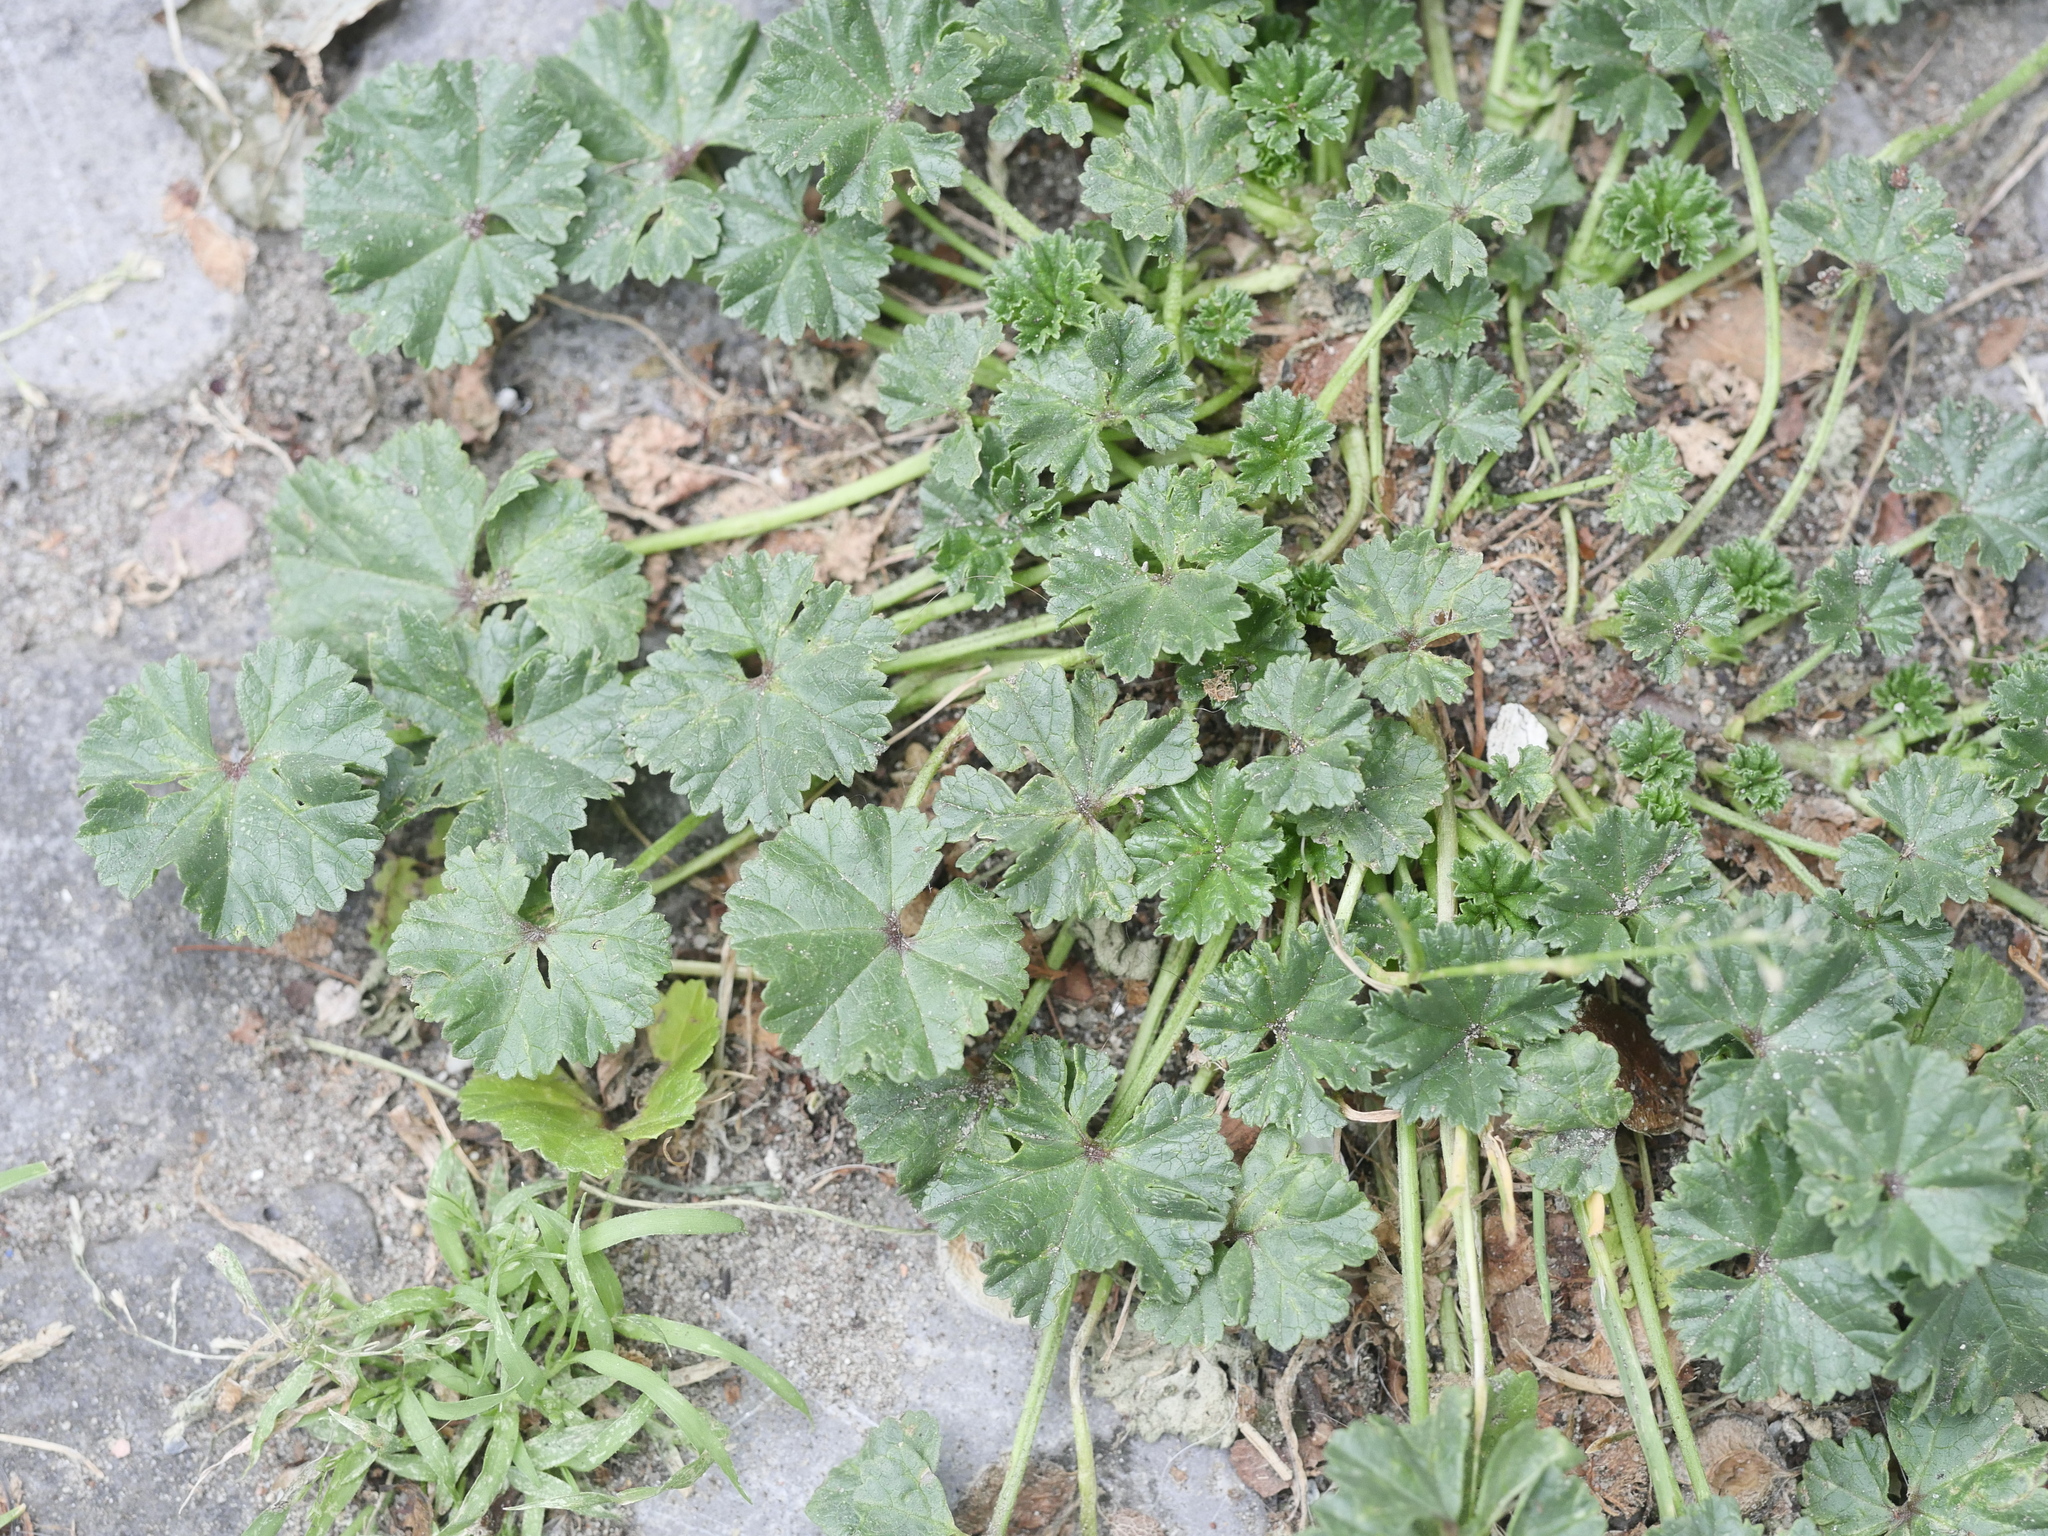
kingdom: Plantae
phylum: Tracheophyta
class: Magnoliopsida
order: Malvales
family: Malvaceae
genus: Malva
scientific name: Malva neglecta
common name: Common mallow
